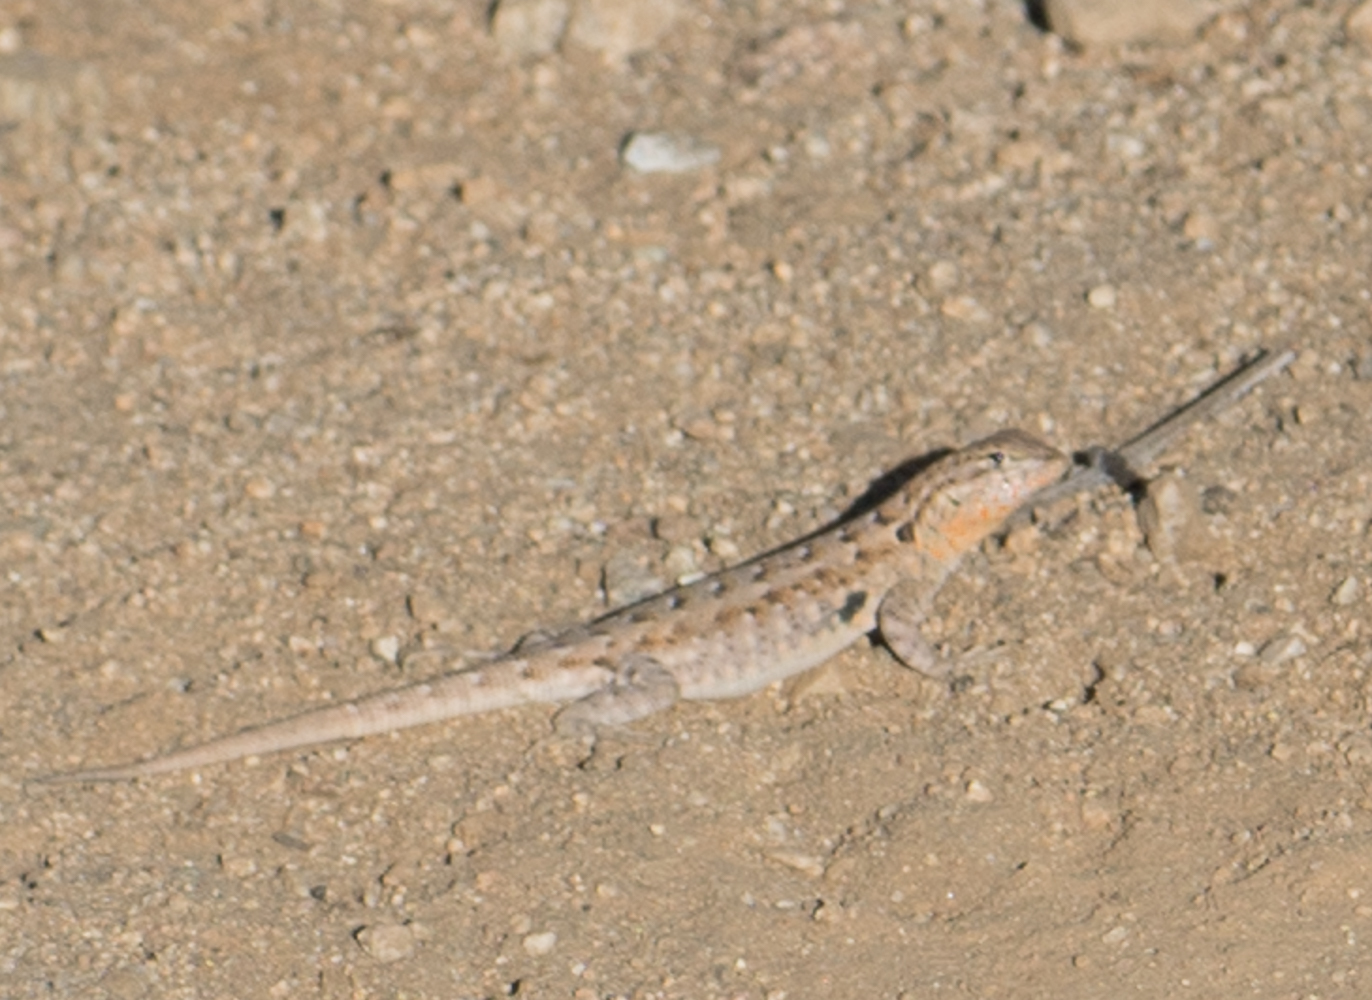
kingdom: Animalia
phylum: Chordata
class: Squamata
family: Phrynosomatidae
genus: Uta
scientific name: Uta stansburiana
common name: Side-blotched lizard
